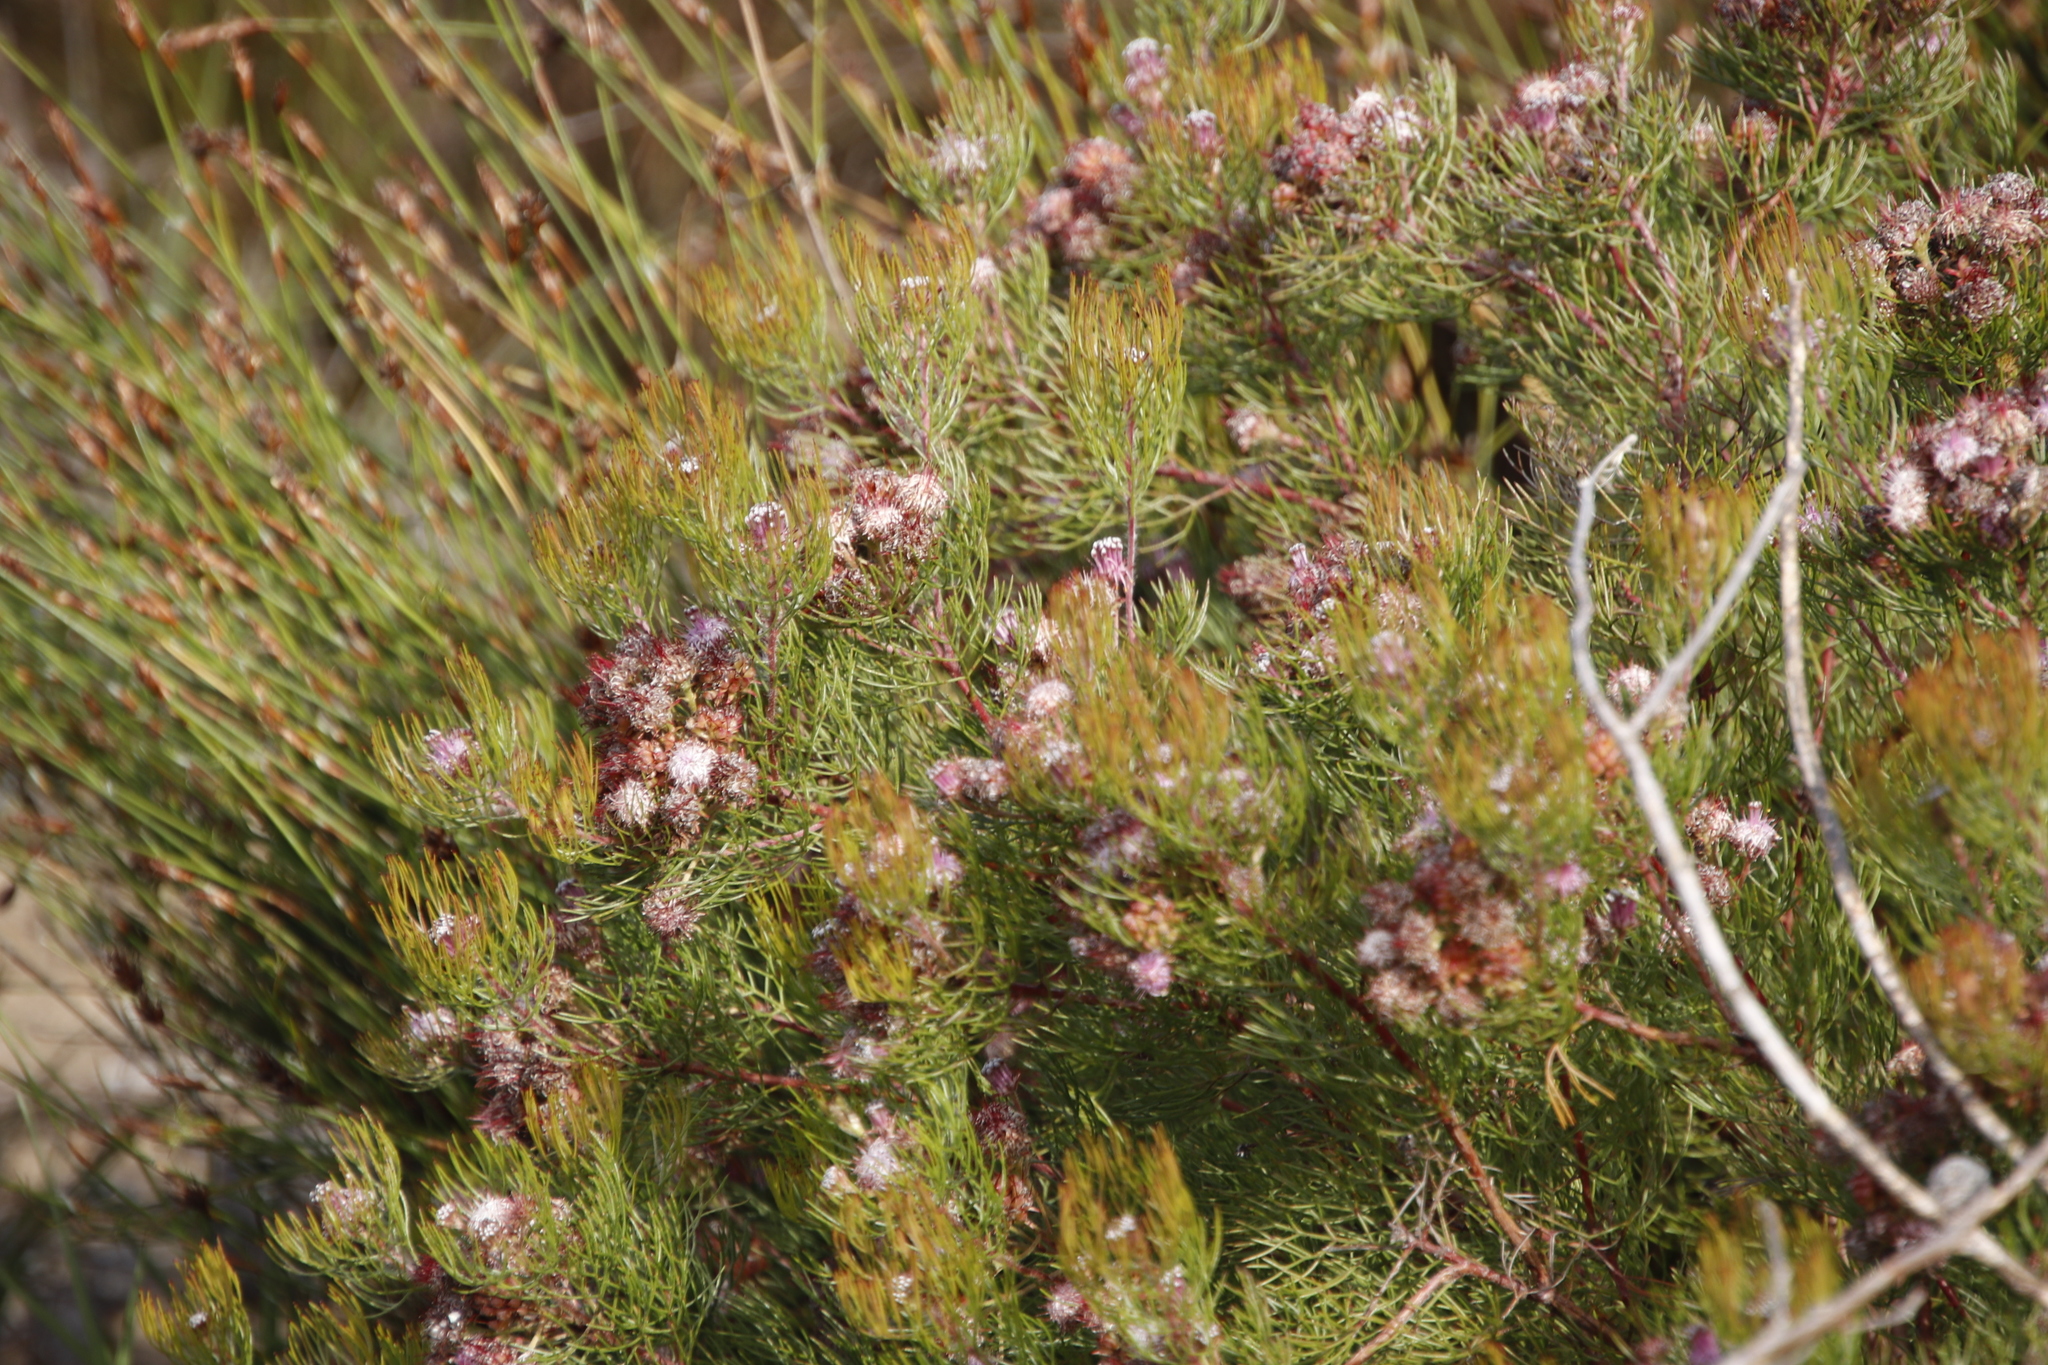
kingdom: Plantae
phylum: Tracheophyta
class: Magnoliopsida
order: Proteales
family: Proteaceae
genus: Serruria
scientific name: Serruria fasciflora
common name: Common pin spiderhead
